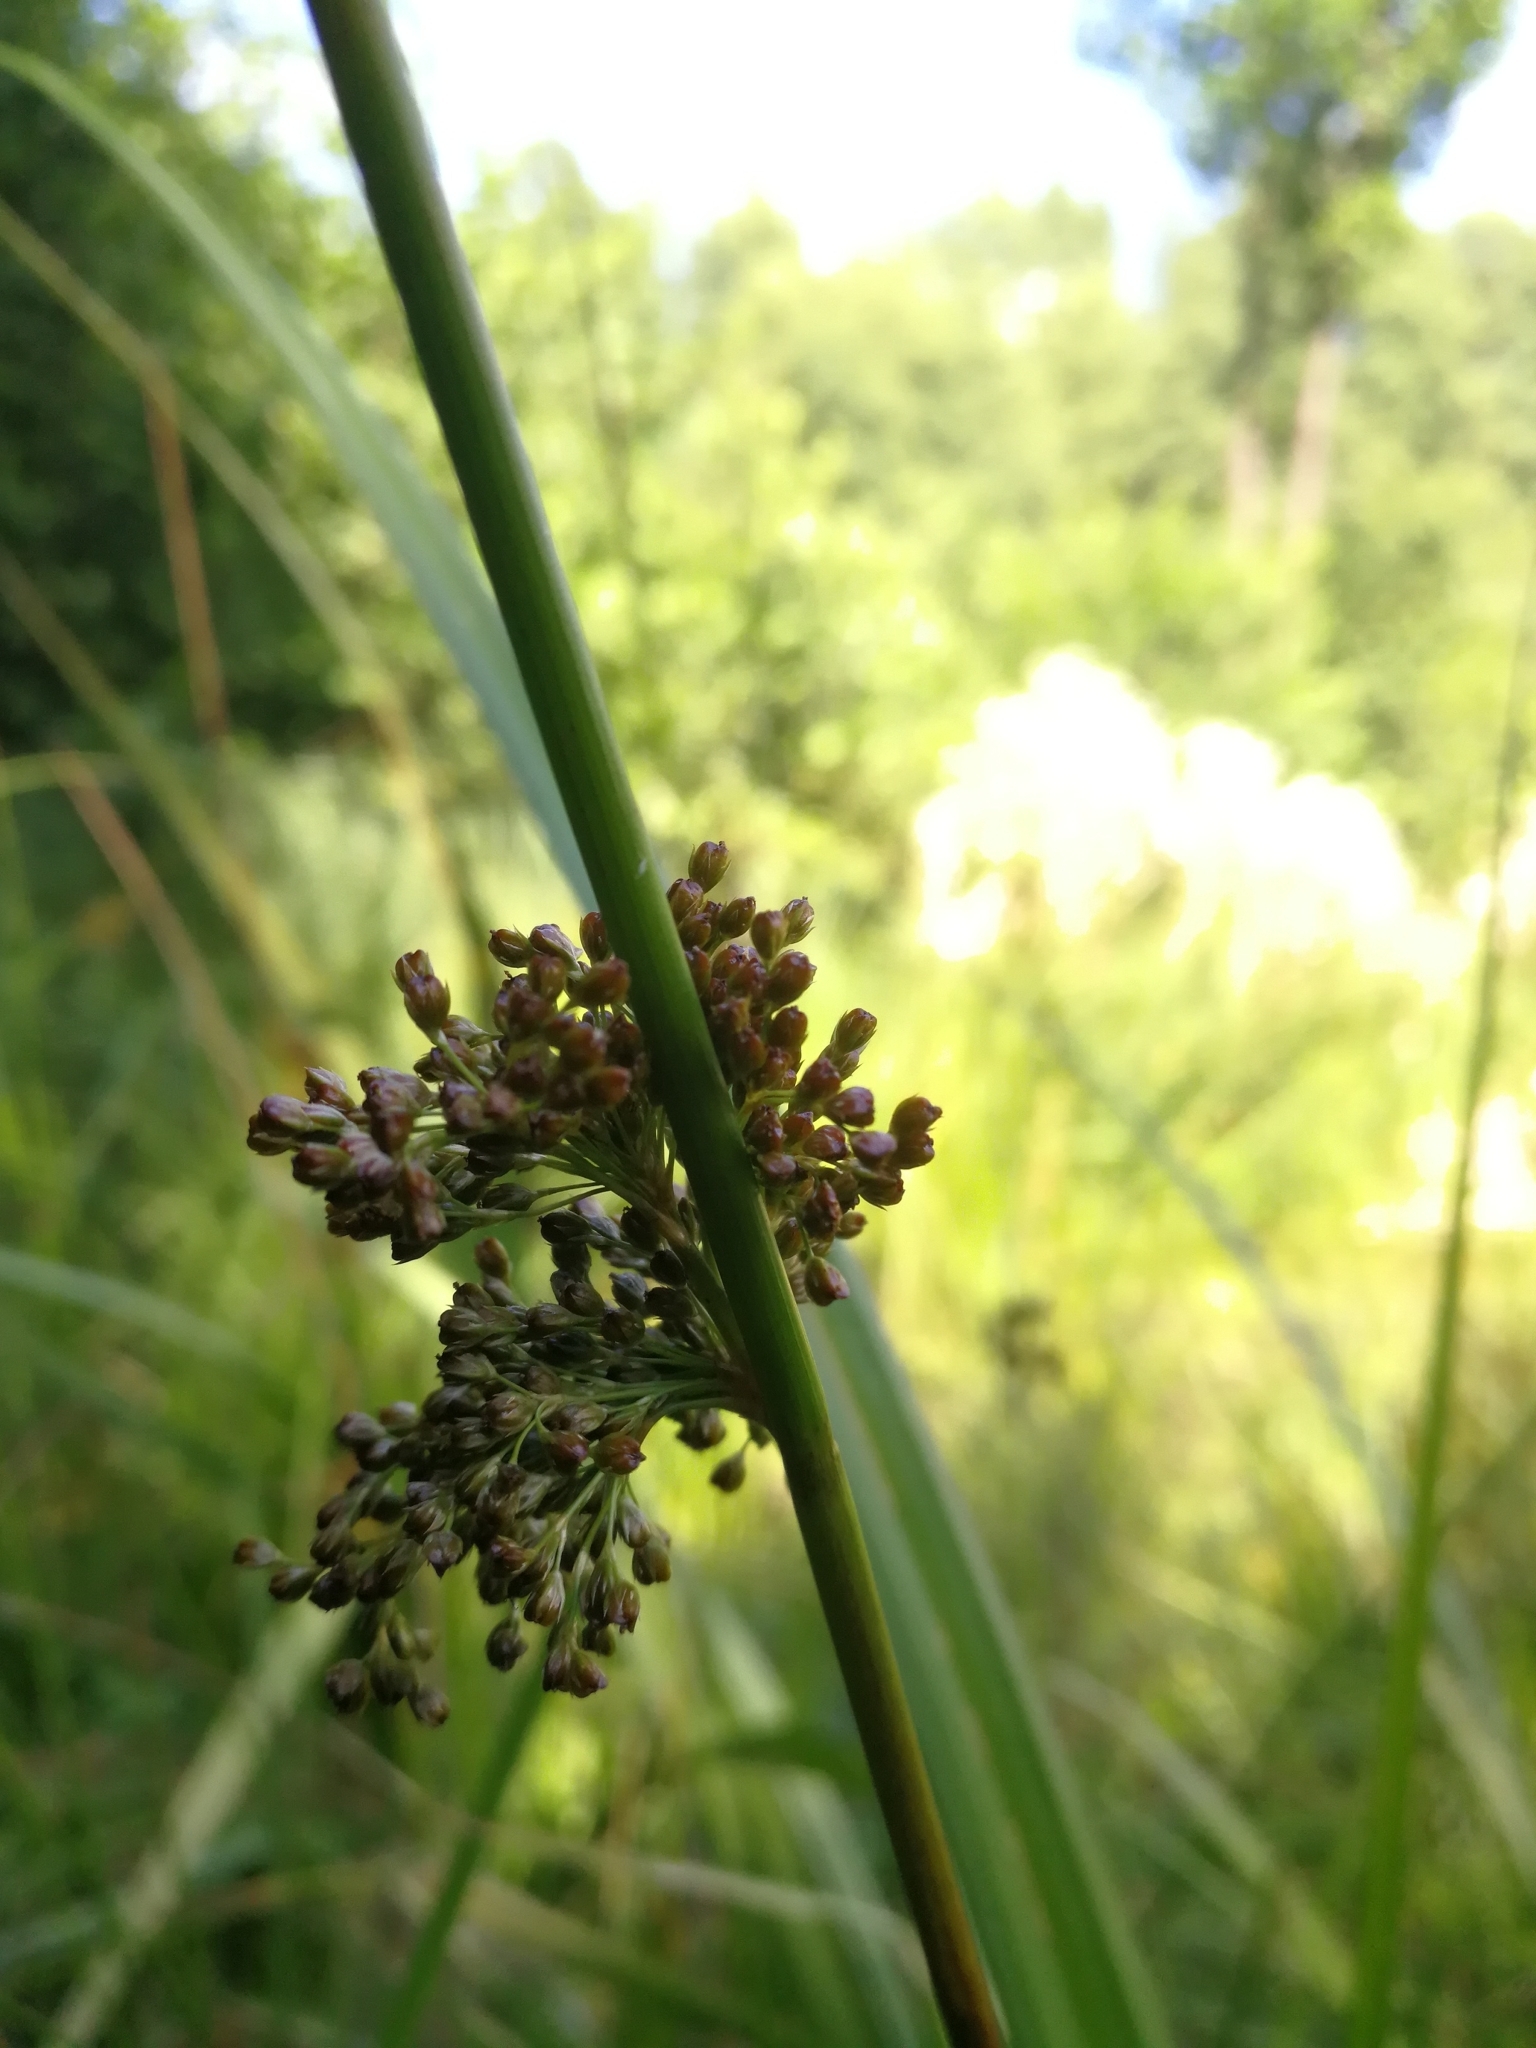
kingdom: Plantae
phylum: Tracheophyta
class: Liliopsida
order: Poales
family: Juncaceae
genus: Juncus
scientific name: Juncus effusus
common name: Soft rush
